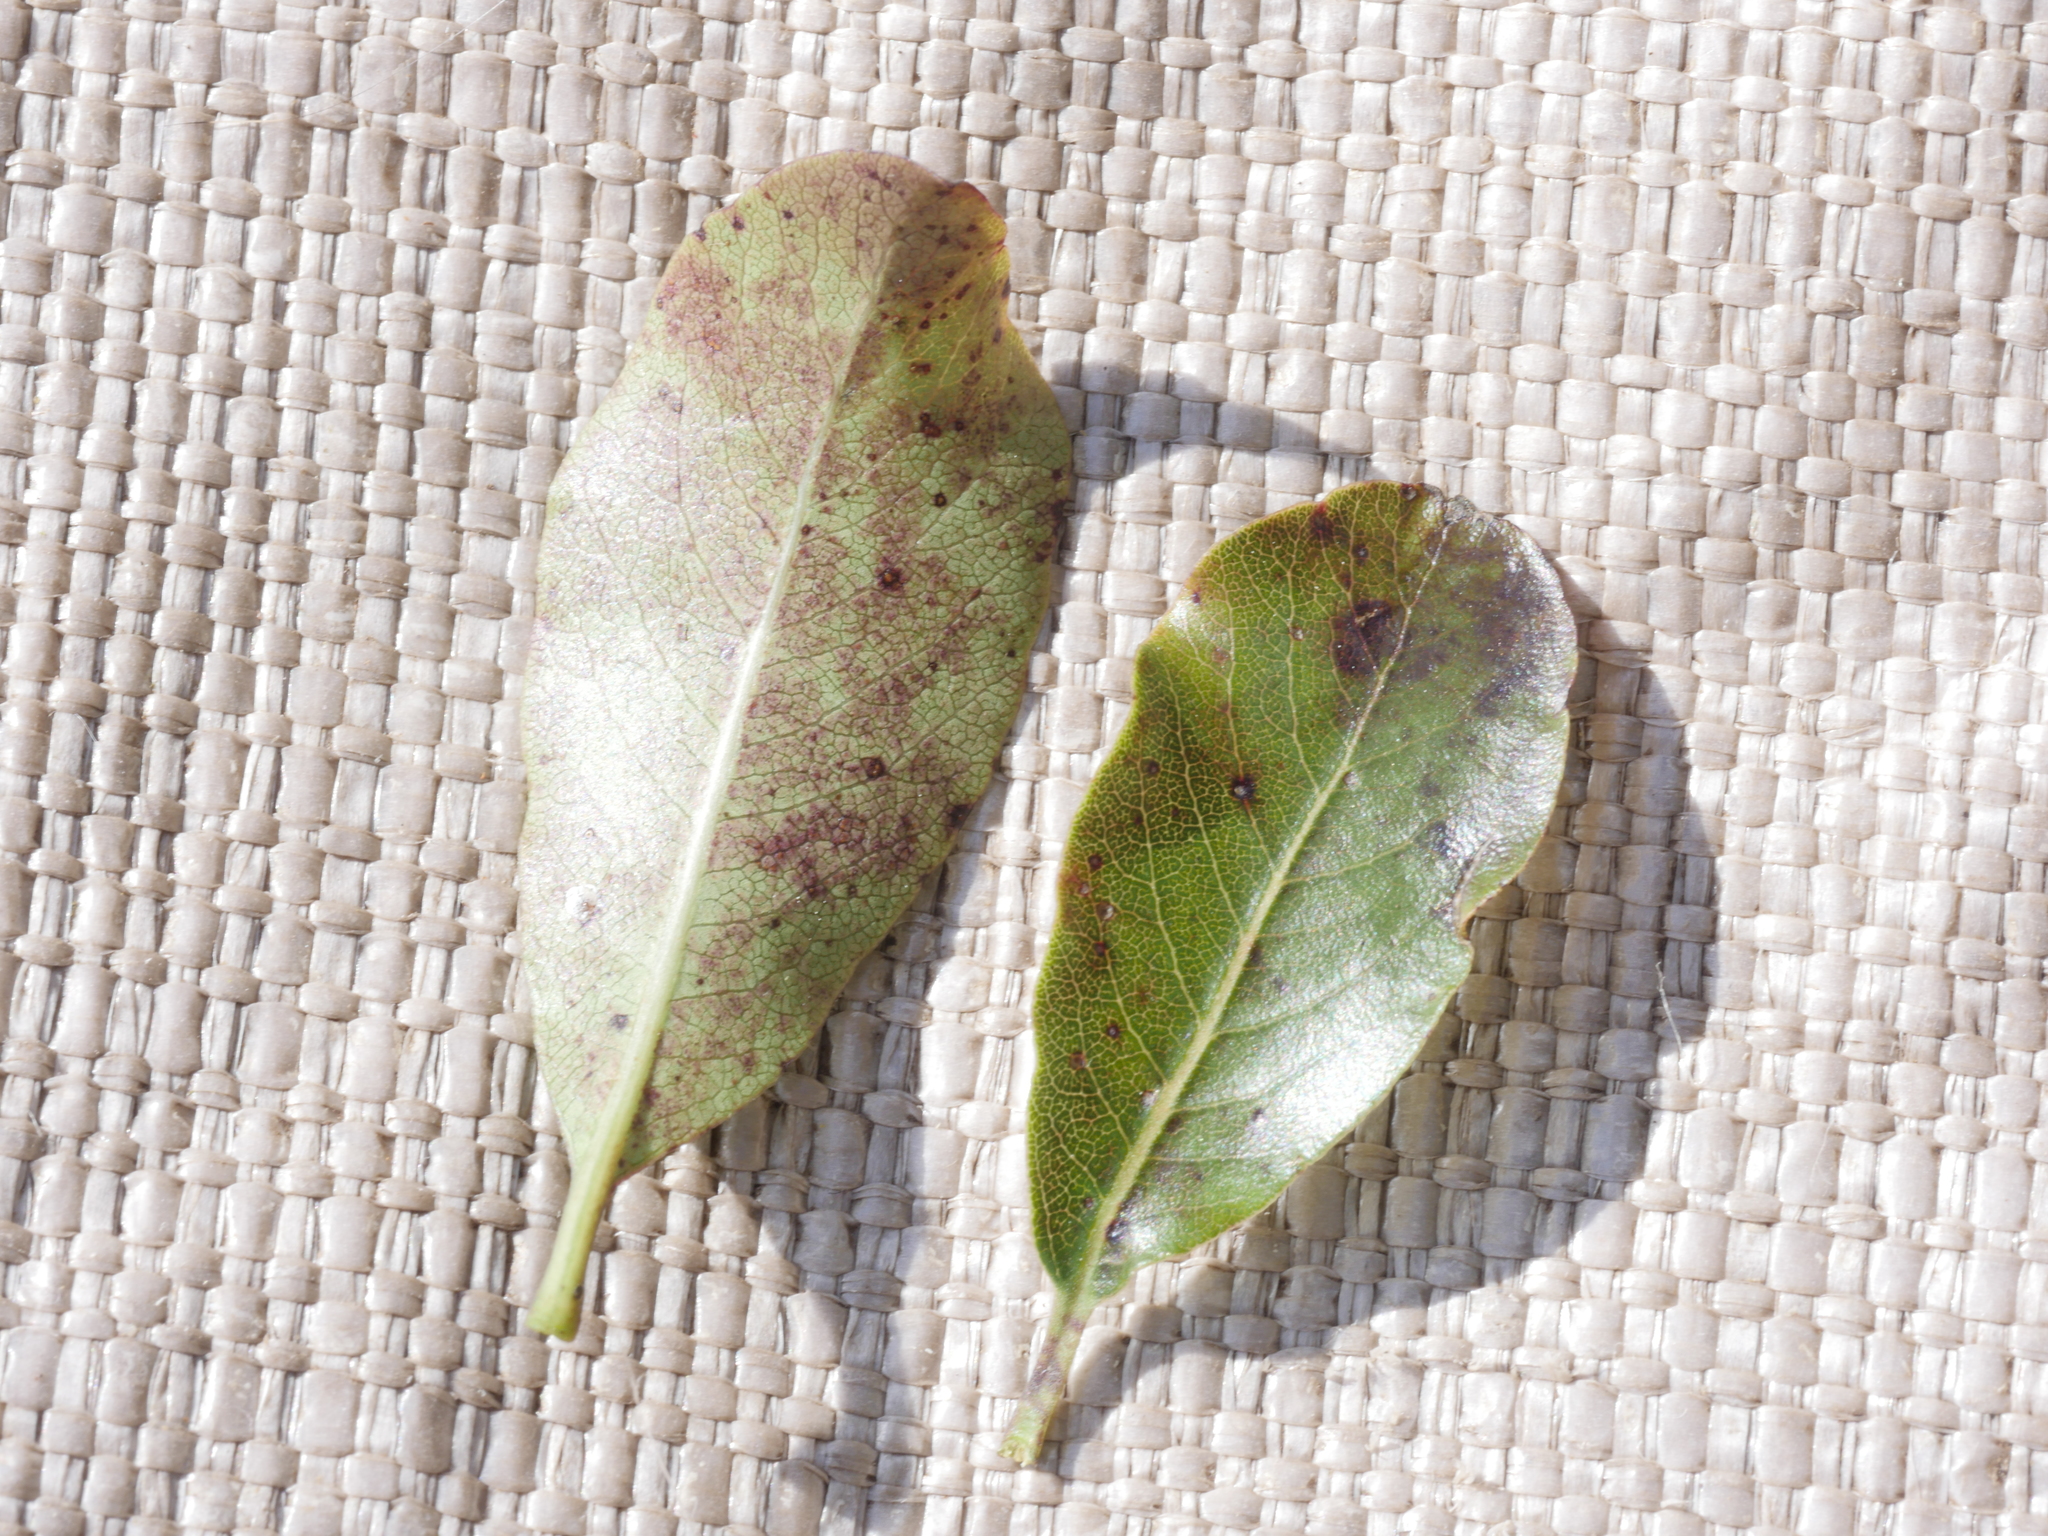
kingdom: Plantae
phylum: Tracheophyta
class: Magnoliopsida
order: Apiales
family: Pittosporaceae
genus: Pittosporum
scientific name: Pittosporum tenuifolium
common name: Kohuhu
